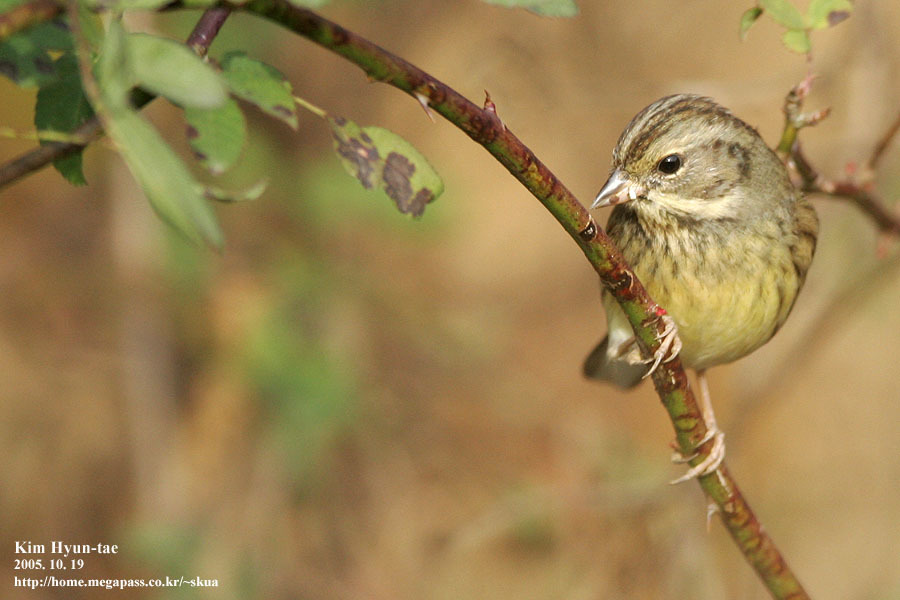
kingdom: Animalia
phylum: Chordata
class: Aves
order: Passeriformes
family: Emberizidae
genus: Emberiza
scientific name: Emberiza spodocephala
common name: Black-faced bunting
